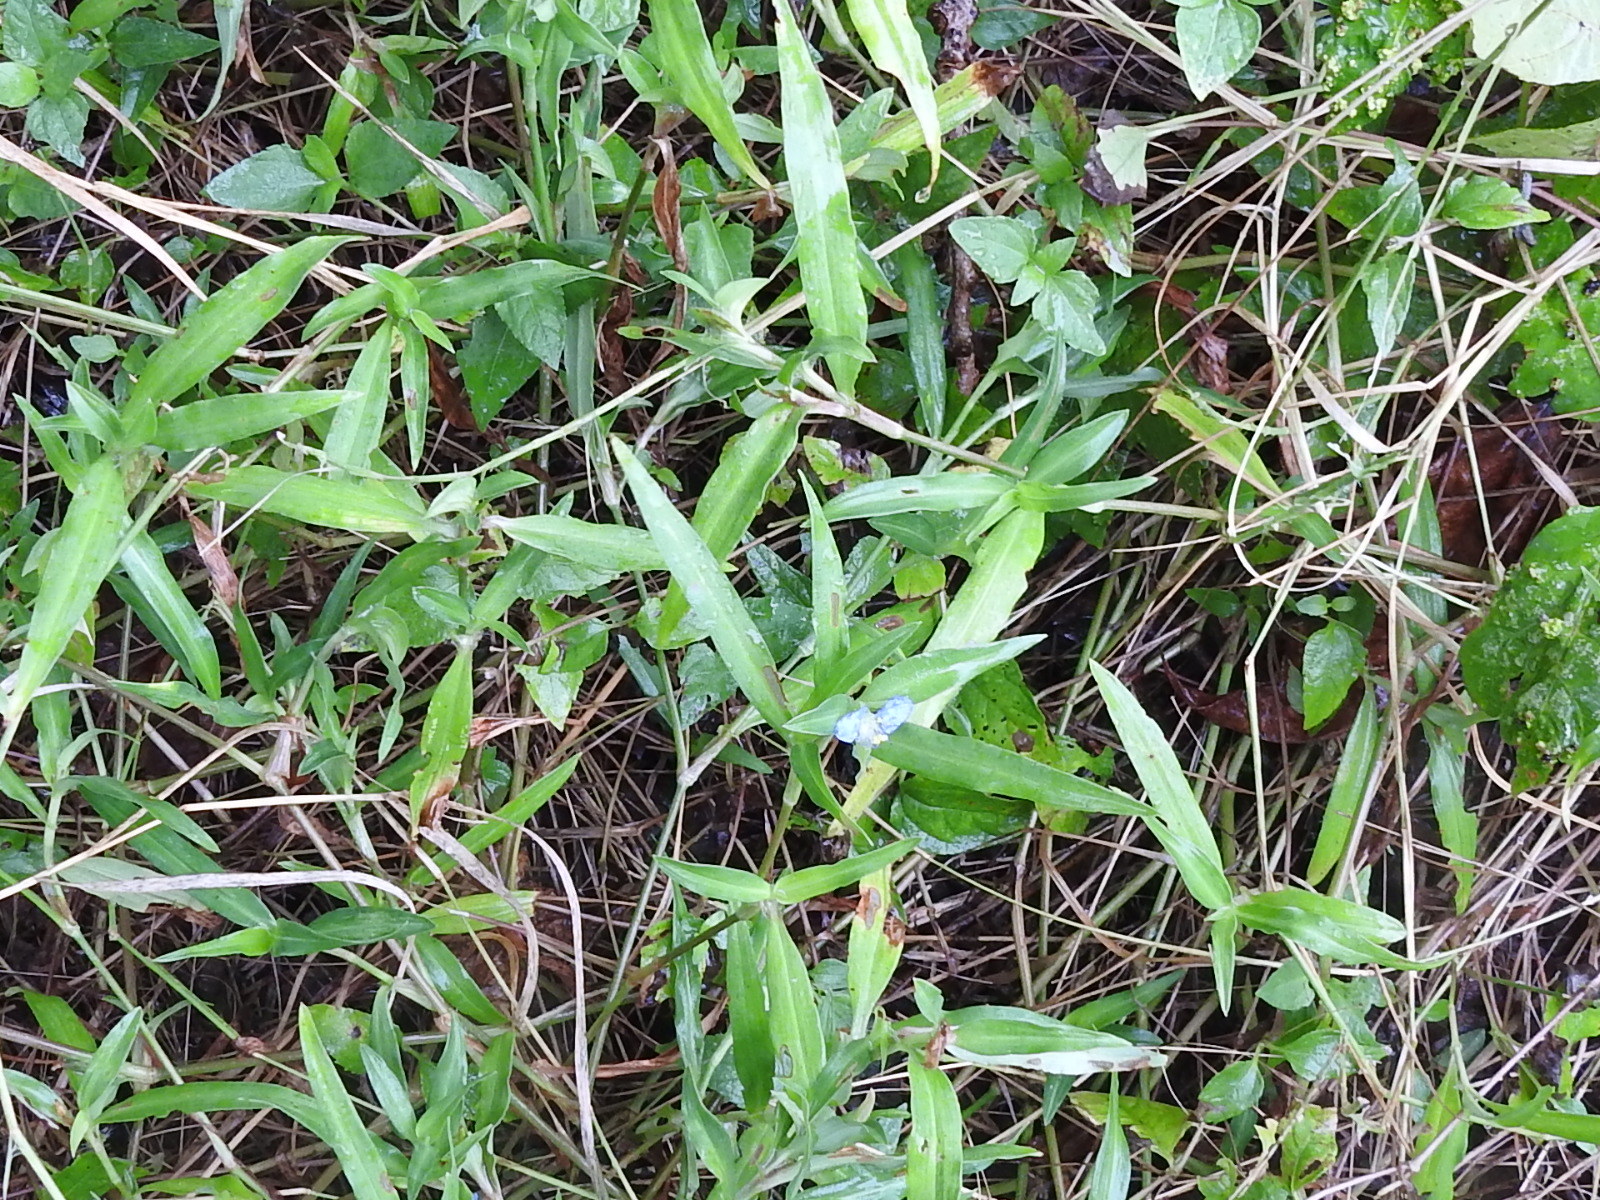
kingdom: Plantae
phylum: Tracheophyta
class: Liliopsida
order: Commelinales
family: Commelinaceae
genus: Commelina
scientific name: Commelina erecta
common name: Blousel blommetjie
